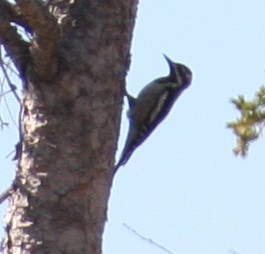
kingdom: Animalia
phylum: Chordata
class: Aves
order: Piciformes
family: Picidae
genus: Sphyrapicus
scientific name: Sphyrapicus varius
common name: Yellow-bellied sapsucker
